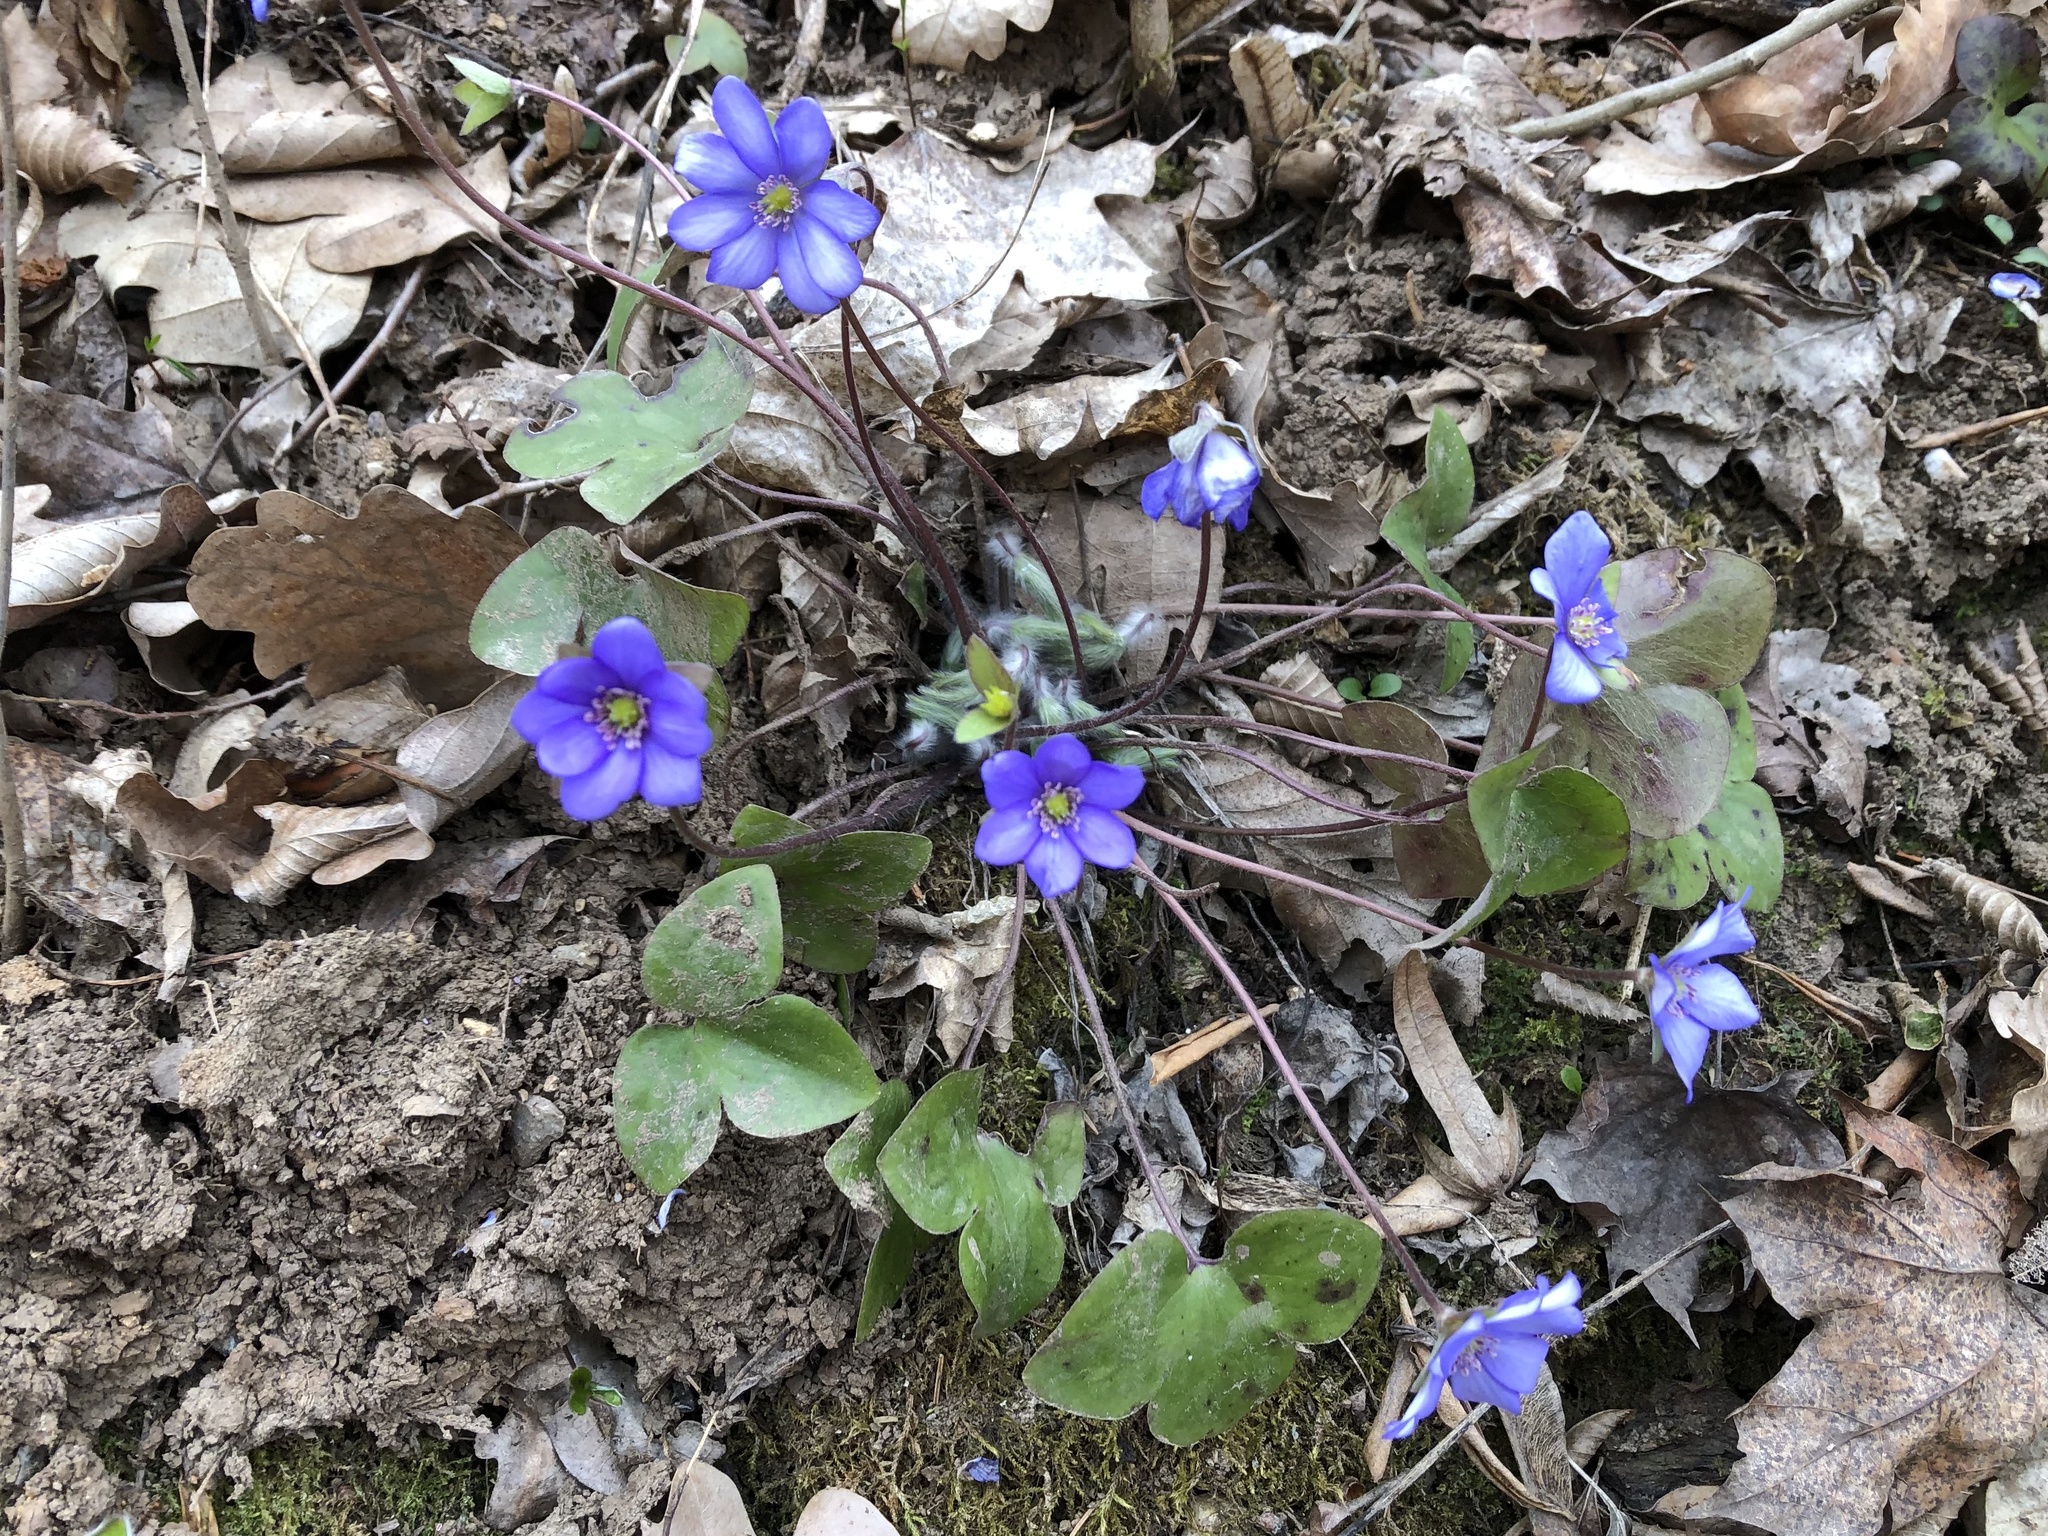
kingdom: Plantae
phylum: Tracheophyta
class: Magnoliopsida
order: Ranunculales
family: Ranunculaceae
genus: Hepatica
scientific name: Hepatica nobilis
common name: Liverleaf
